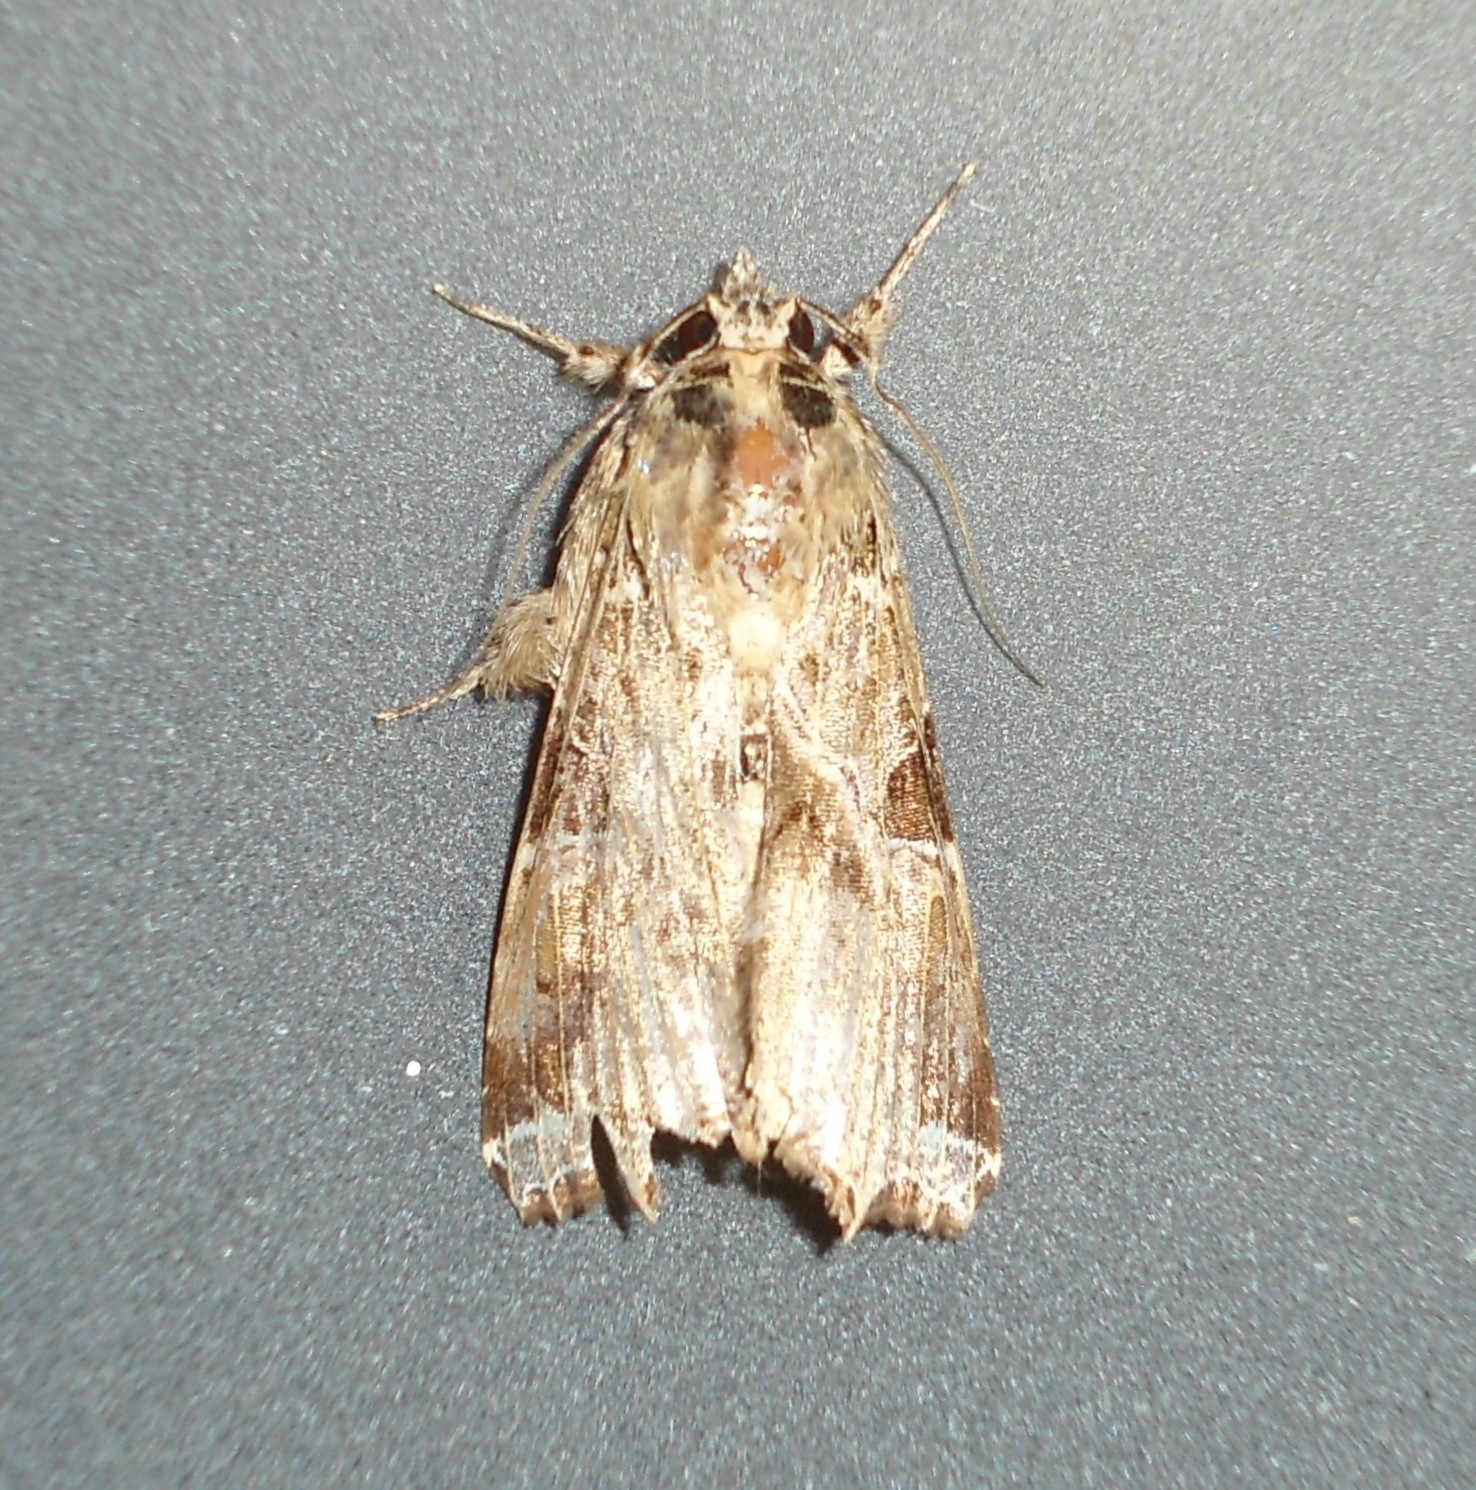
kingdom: Animalia
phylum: Arthropoda
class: Insecta
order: Lepidoptera
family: Noctuidae
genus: Callopistria
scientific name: Callopistria floridensis
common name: Florida fern moth
